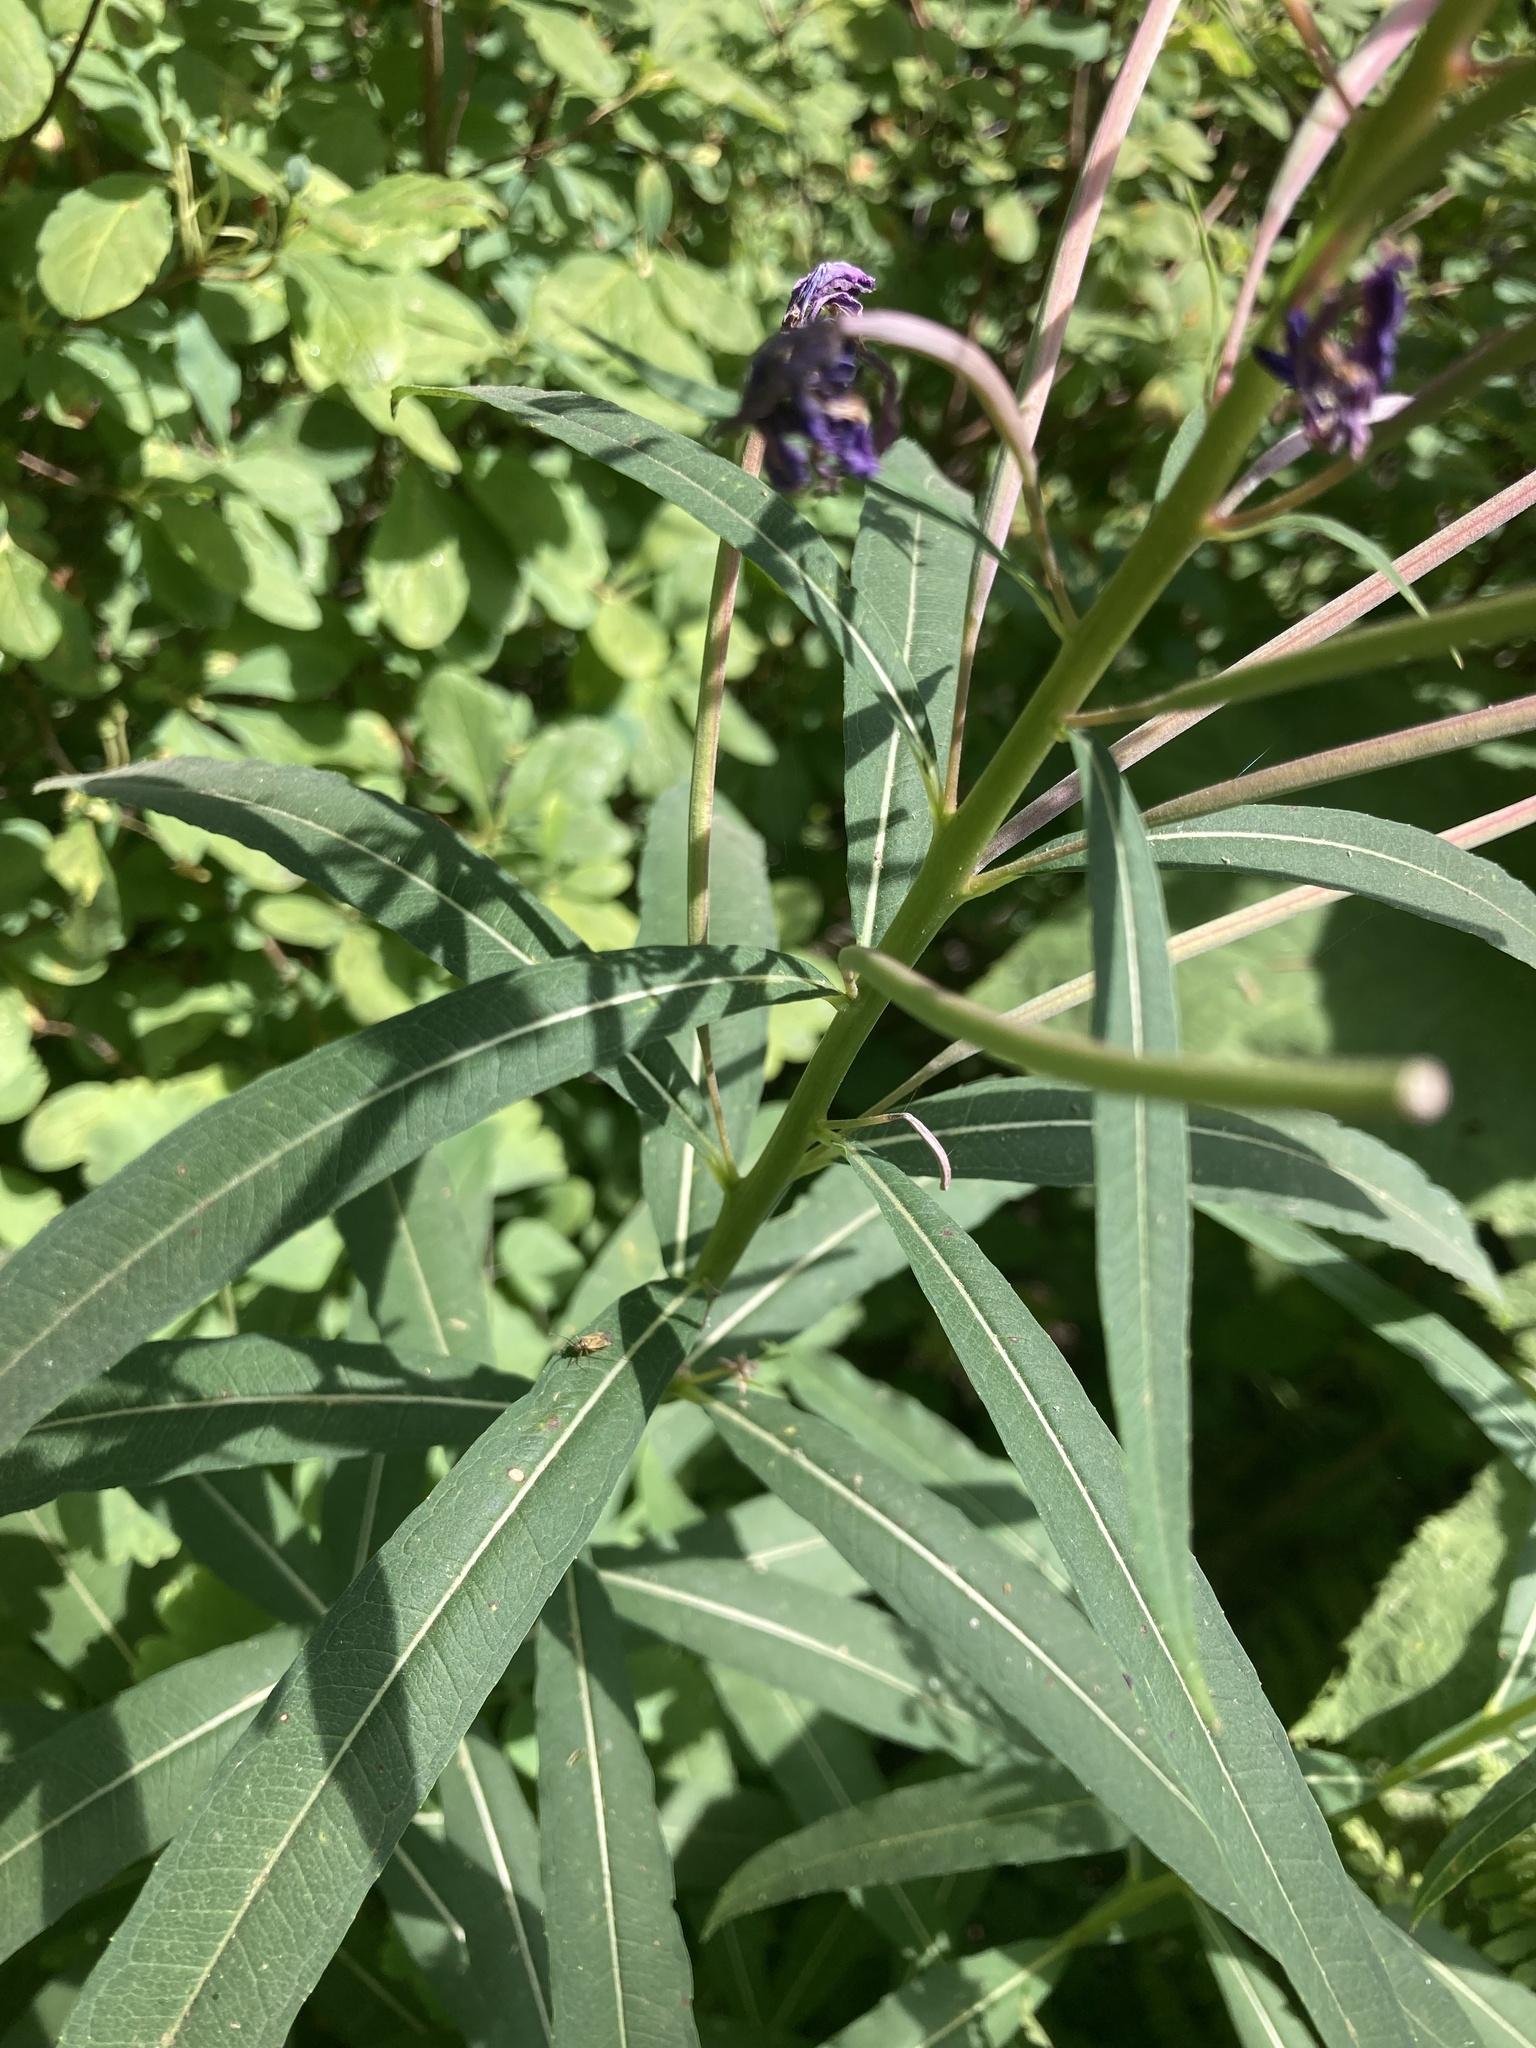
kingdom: Plantae
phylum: Tracheophyta
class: Magnoliopsida
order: Myrtales
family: Onagraceae
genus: Chamaenerion
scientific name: Chamaenerion angustifolium
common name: Fireweed
